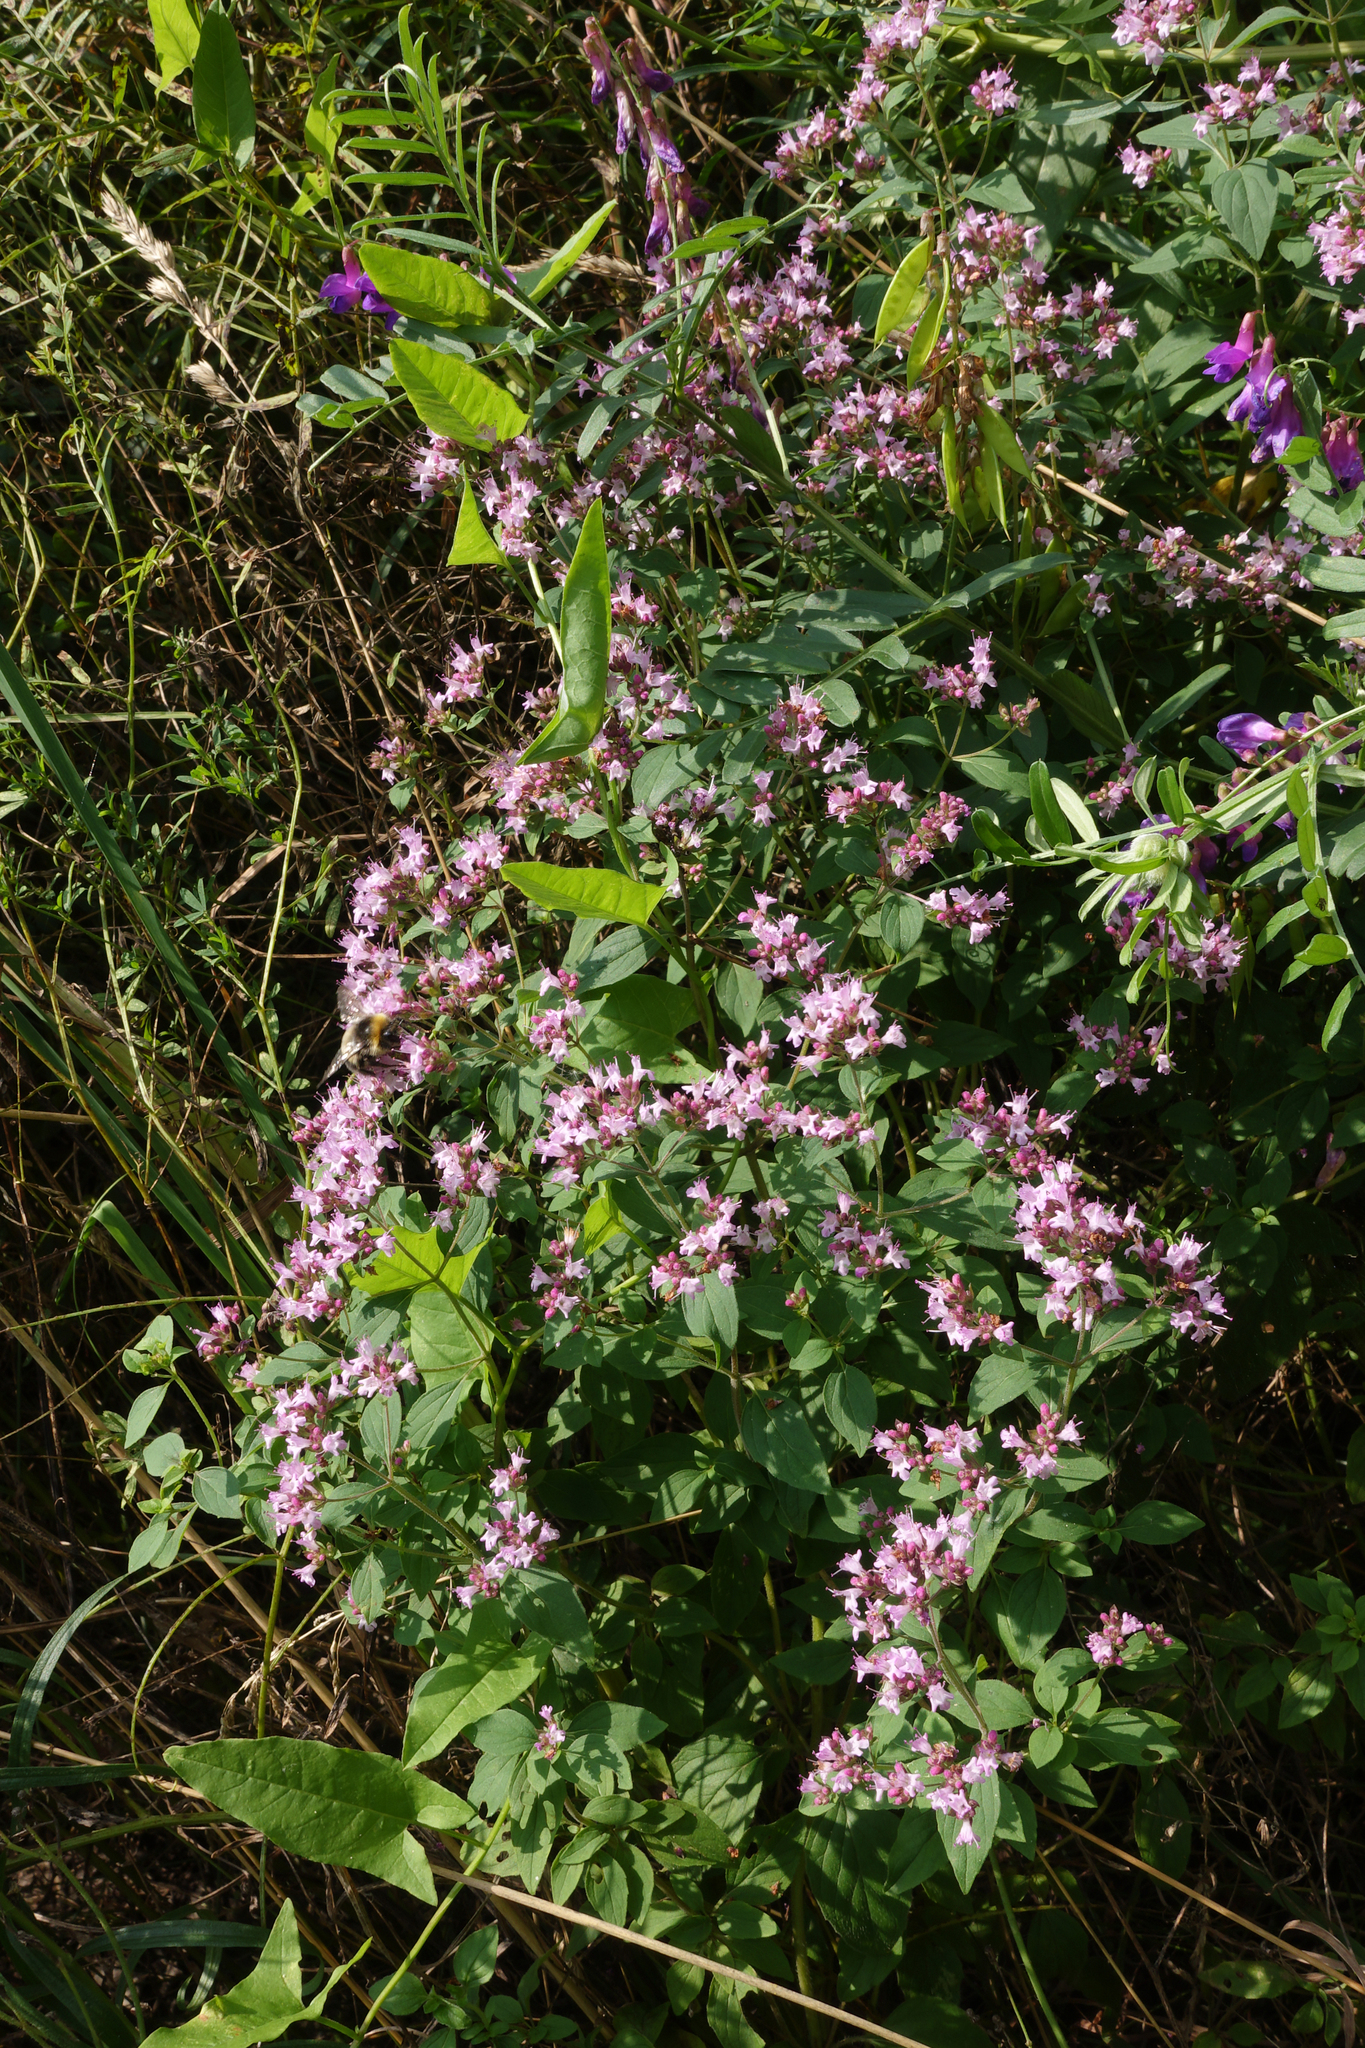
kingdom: Plantae
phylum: Tracheophyta
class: Magnoliopsida
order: Lamiales
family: Lamiaceae
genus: Origanum
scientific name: Origanum vulgare
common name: Wild marjoram
